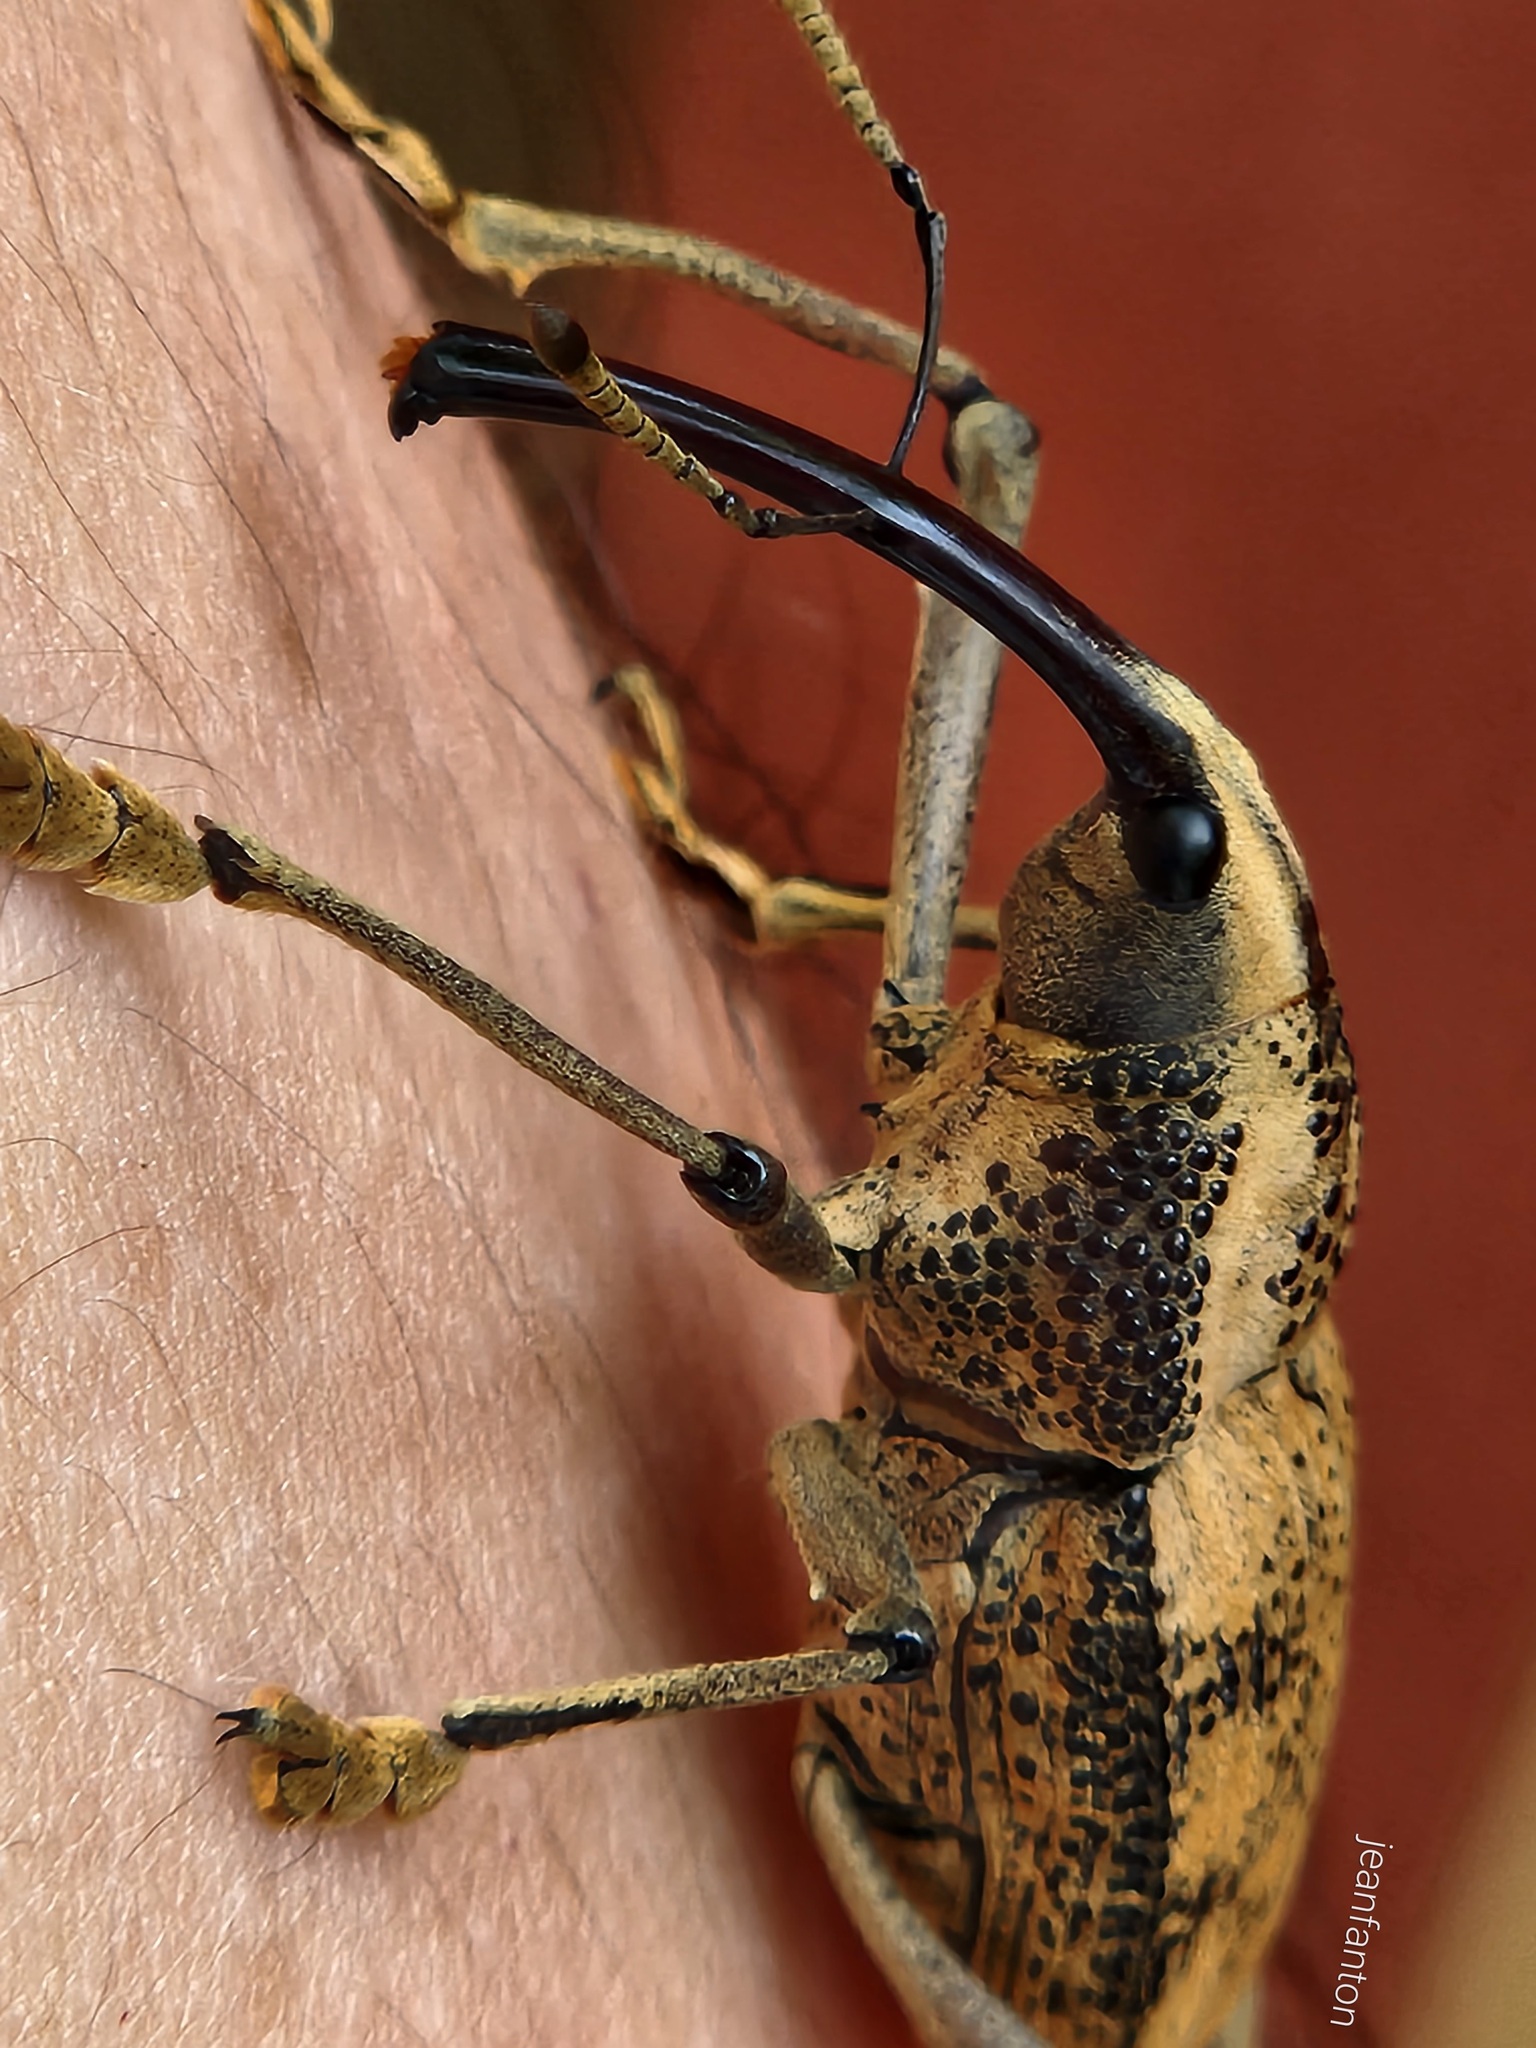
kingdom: Animalia
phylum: Arthropoda
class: Insecta
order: Coleoptera
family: Curculionidae
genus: Rhinastus
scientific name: Rhinastus latisternus
